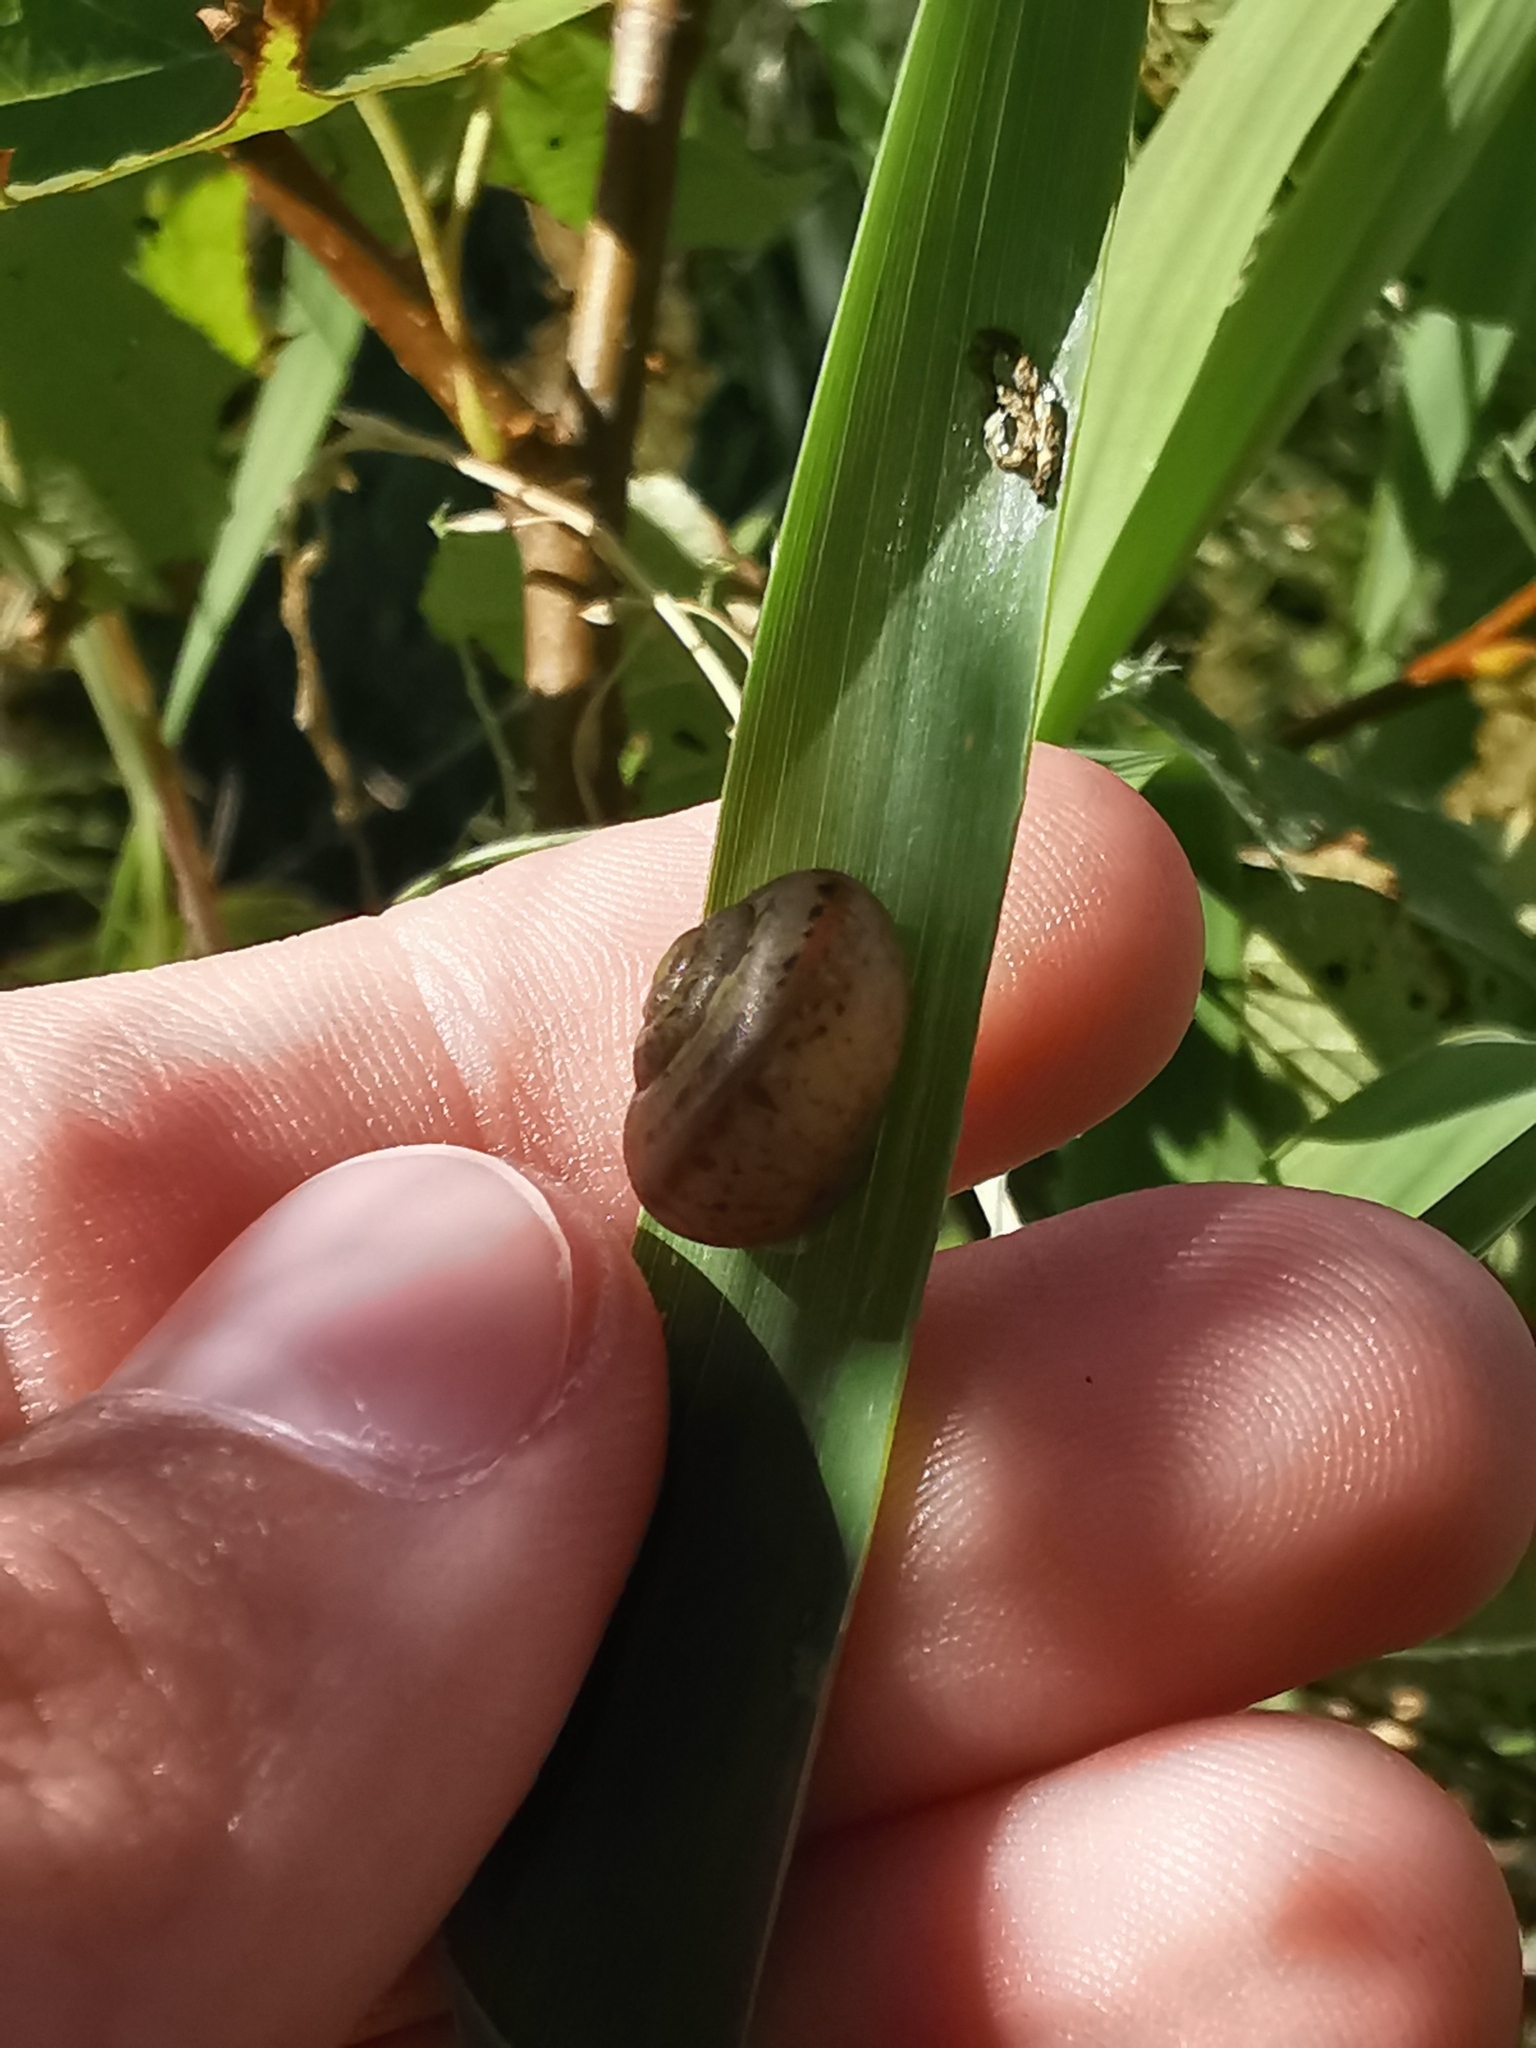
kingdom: Animalia
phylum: Mollusca
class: Gastropoda
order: Stylommatophora
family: Camaenidae
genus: Fruticicola
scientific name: Fruticicola fruticum
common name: Bush snail
